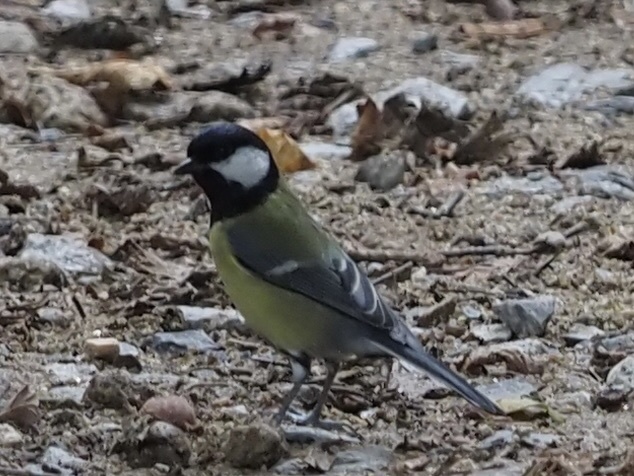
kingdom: Animalia
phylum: Chordata
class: Aves
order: Passeriformes
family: Paridae
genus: Parus
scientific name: Parus major
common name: Great tit
